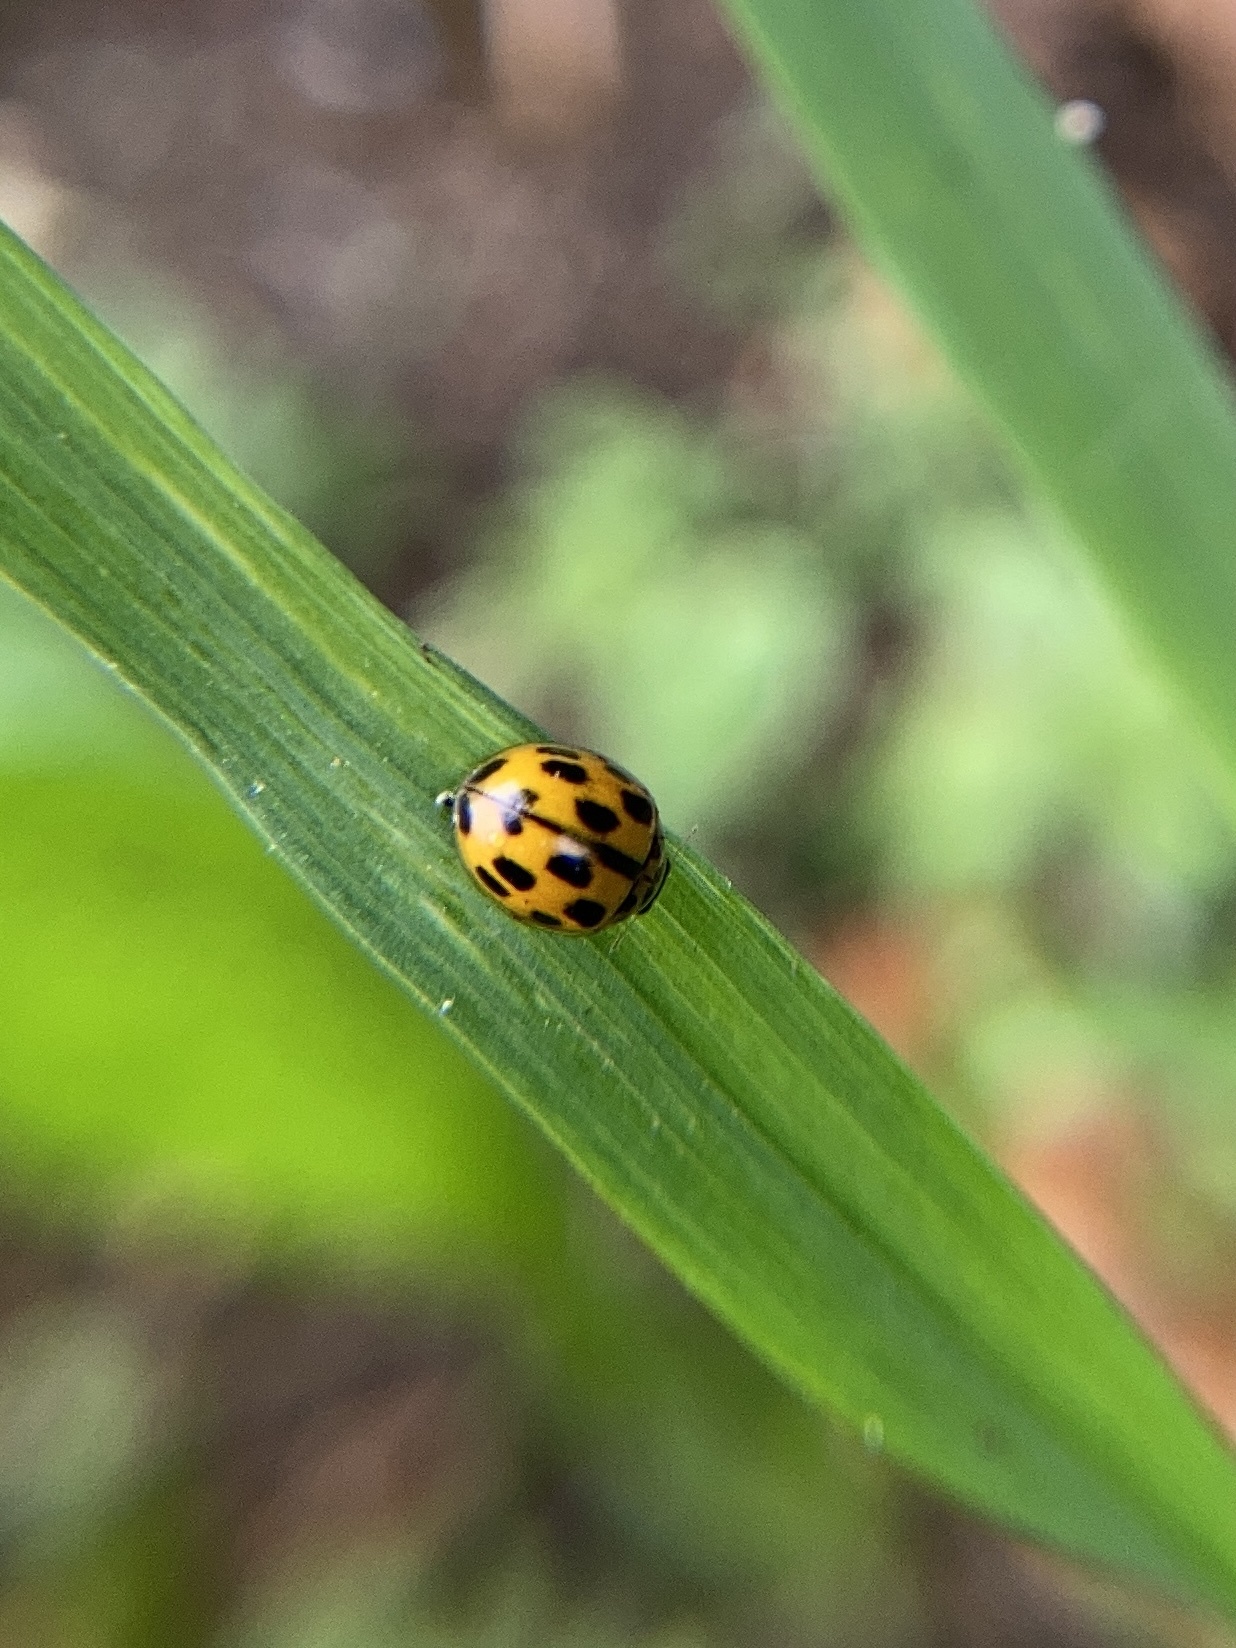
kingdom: Animalia
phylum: Arthropoda
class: Insecta
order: Coleoptera
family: Coccinellidae
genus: Propylaea
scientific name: Propylaea quatuordecimpunctata
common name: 14-spotted ladybird beetle
